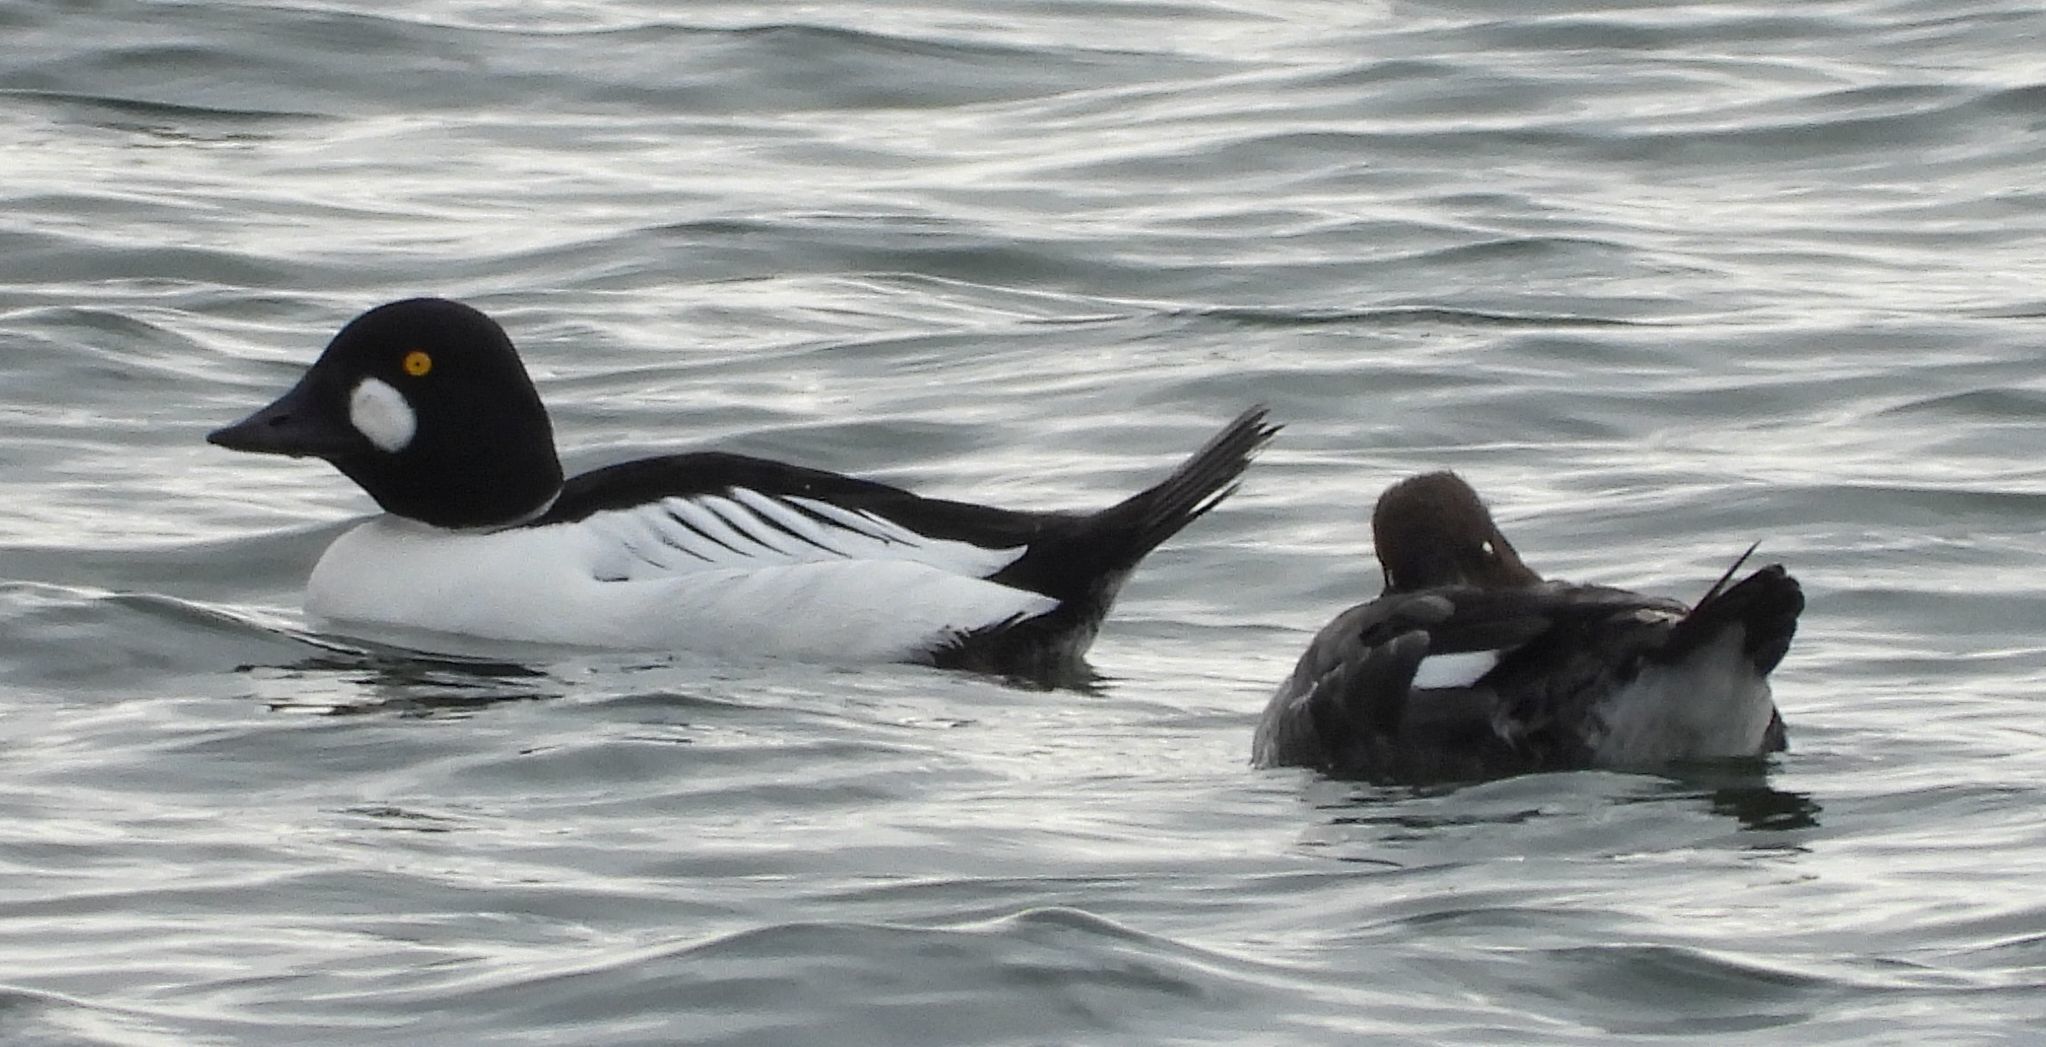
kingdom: Animalia
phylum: Chordata
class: Aves
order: Anseriformes
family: Anatidae
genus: Bucephala
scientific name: Bucephala clangula
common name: Common goldeneye
